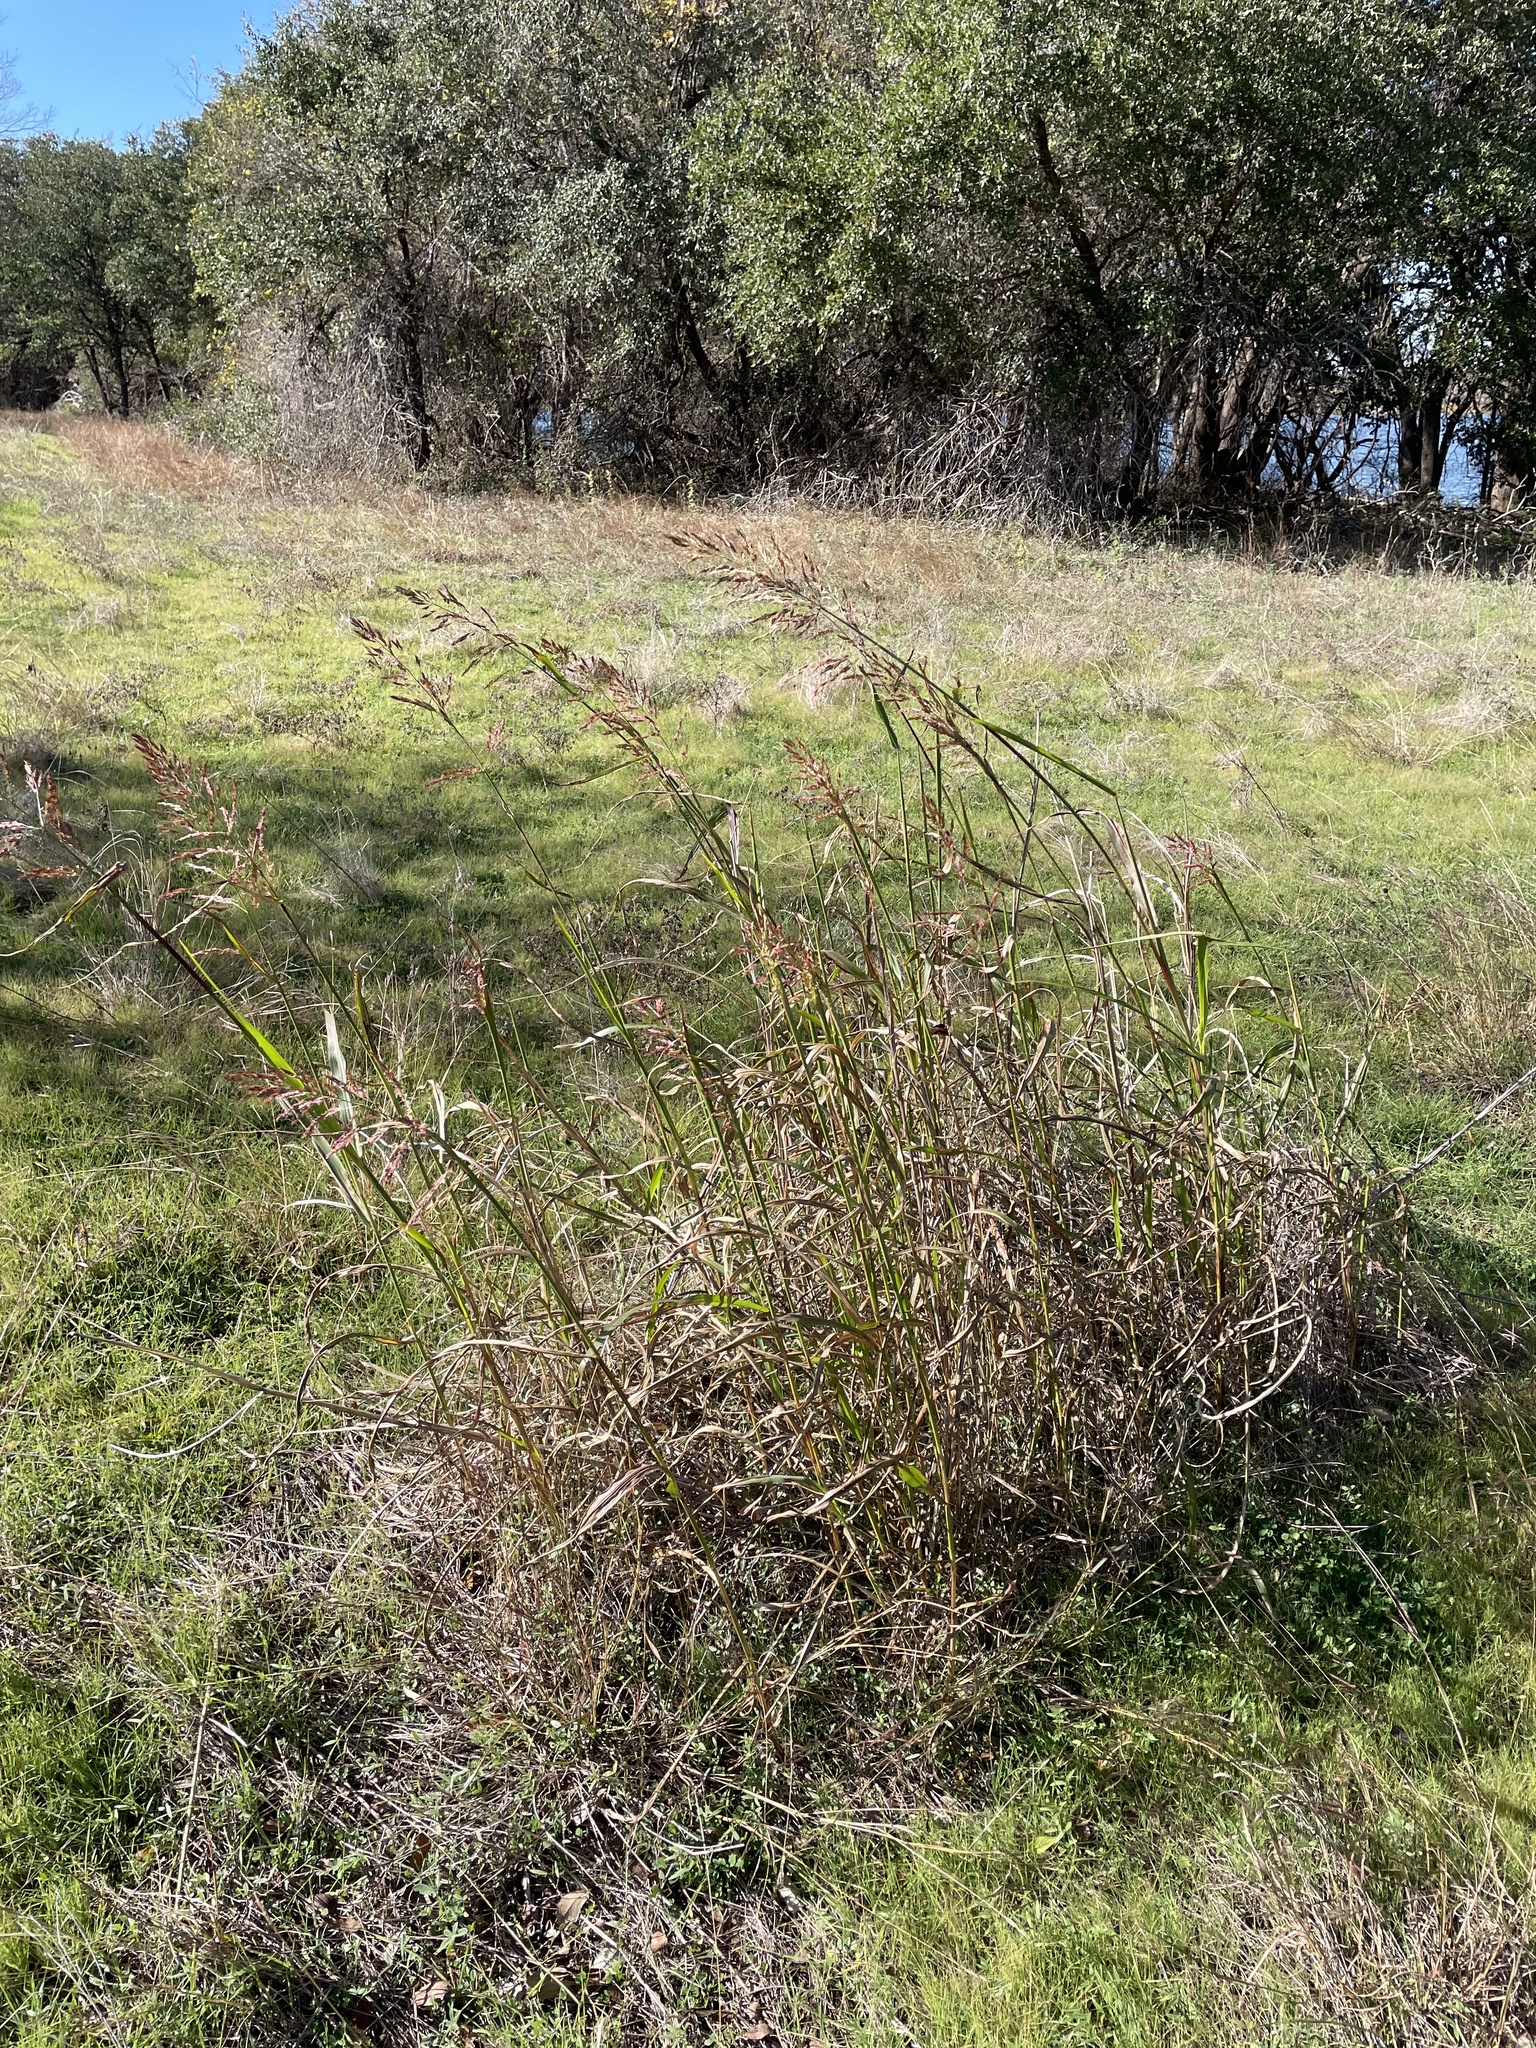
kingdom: Plantae
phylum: Tracheophyta
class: Liliopsida
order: Poales
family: Poaceae
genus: Sorghum
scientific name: Sorghum halepense
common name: Johnson-grass
